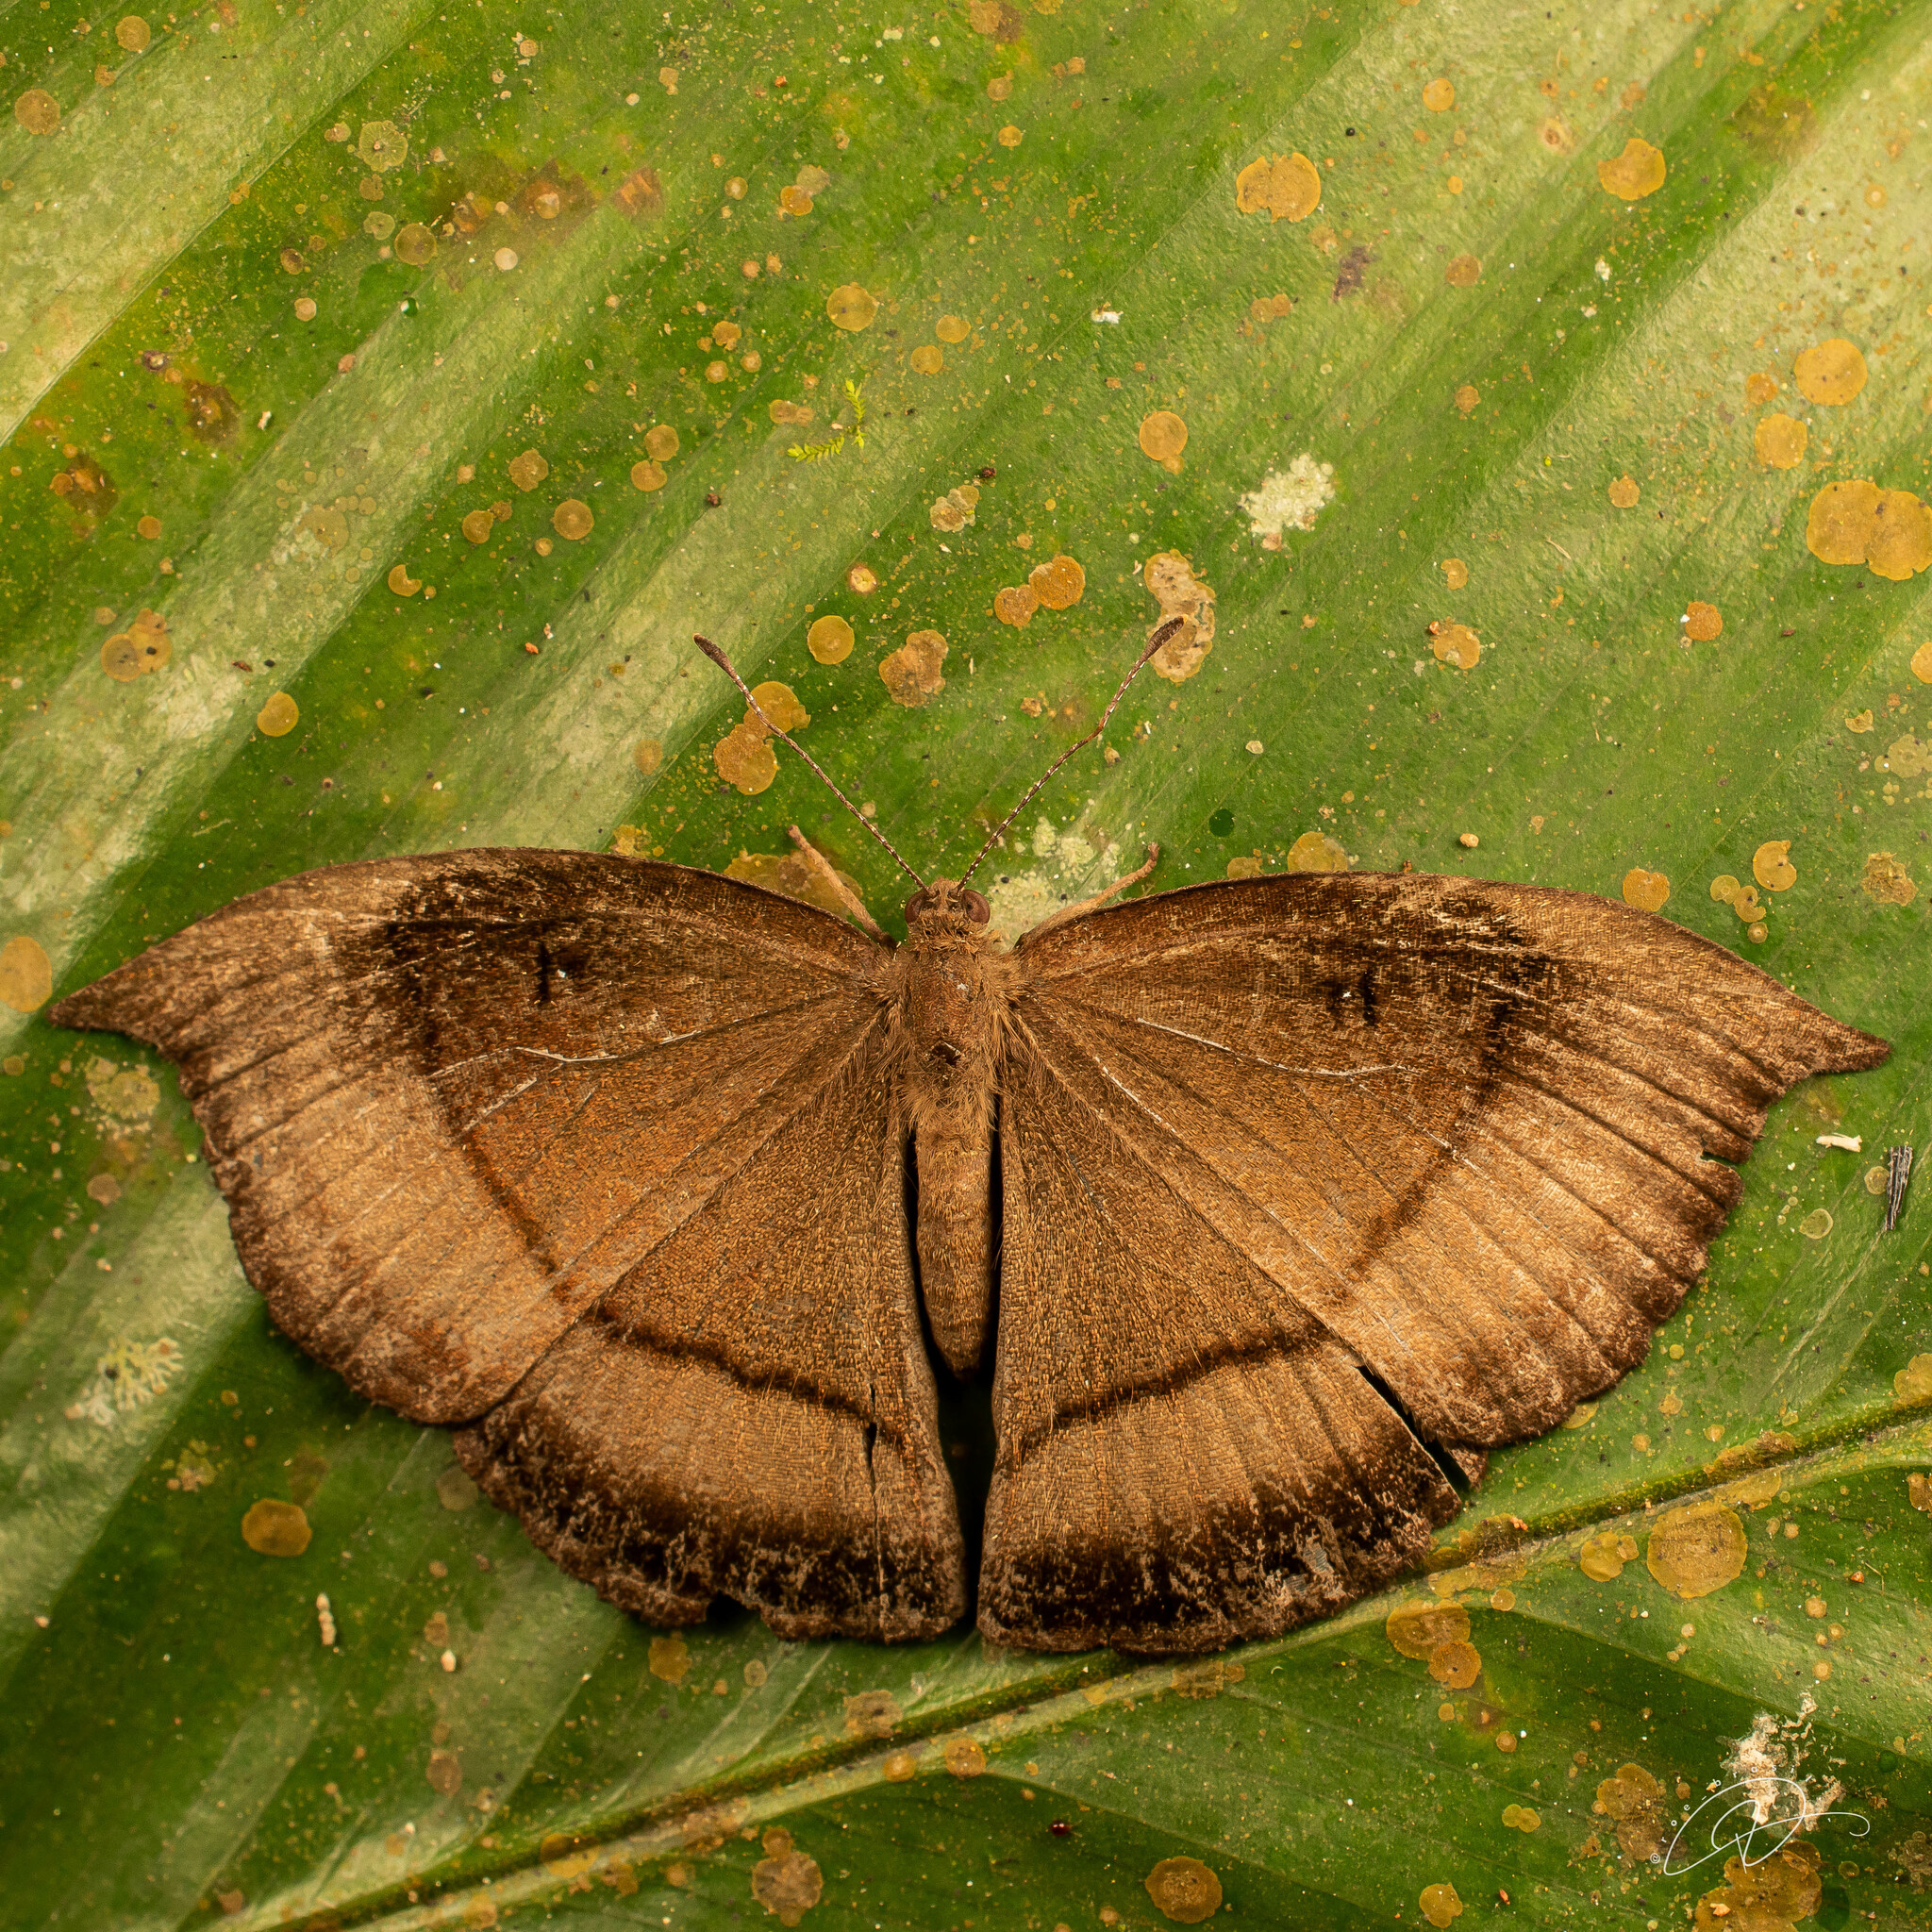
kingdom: Animalia
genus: Mesosemia
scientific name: Mesosemia acuta
